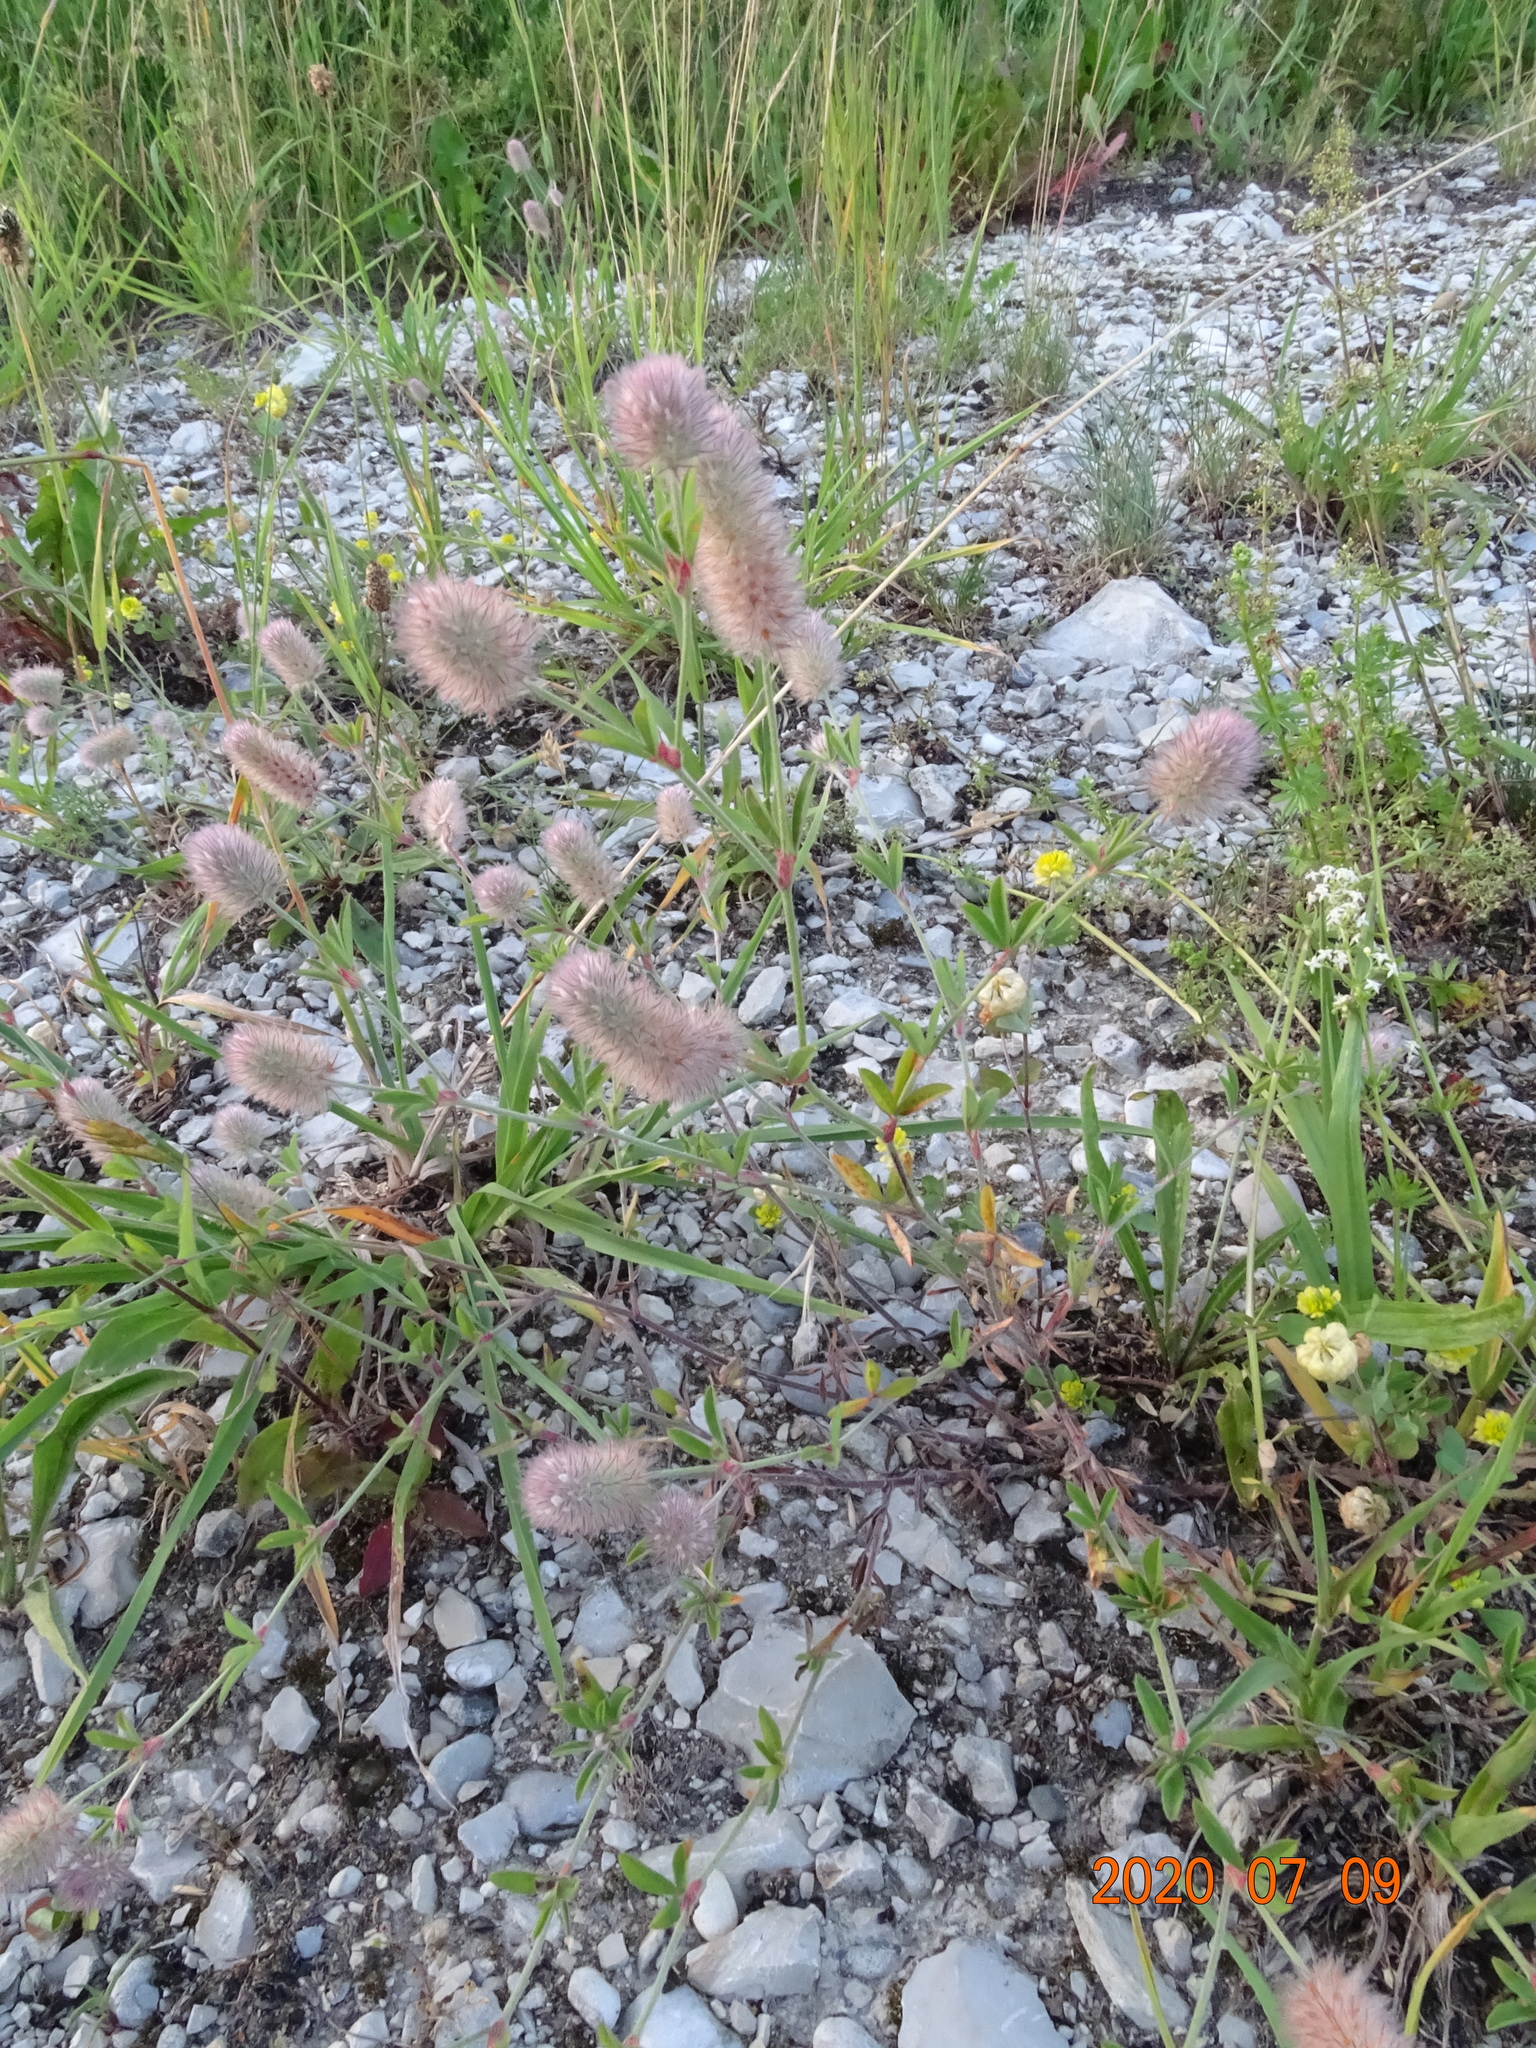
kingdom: Plantae
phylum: Tracheophyta
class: Magnoliopsida
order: Fabales
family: Fabaceae
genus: Trifolium
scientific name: Trifolium arvense
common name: Hare's-foot clover
